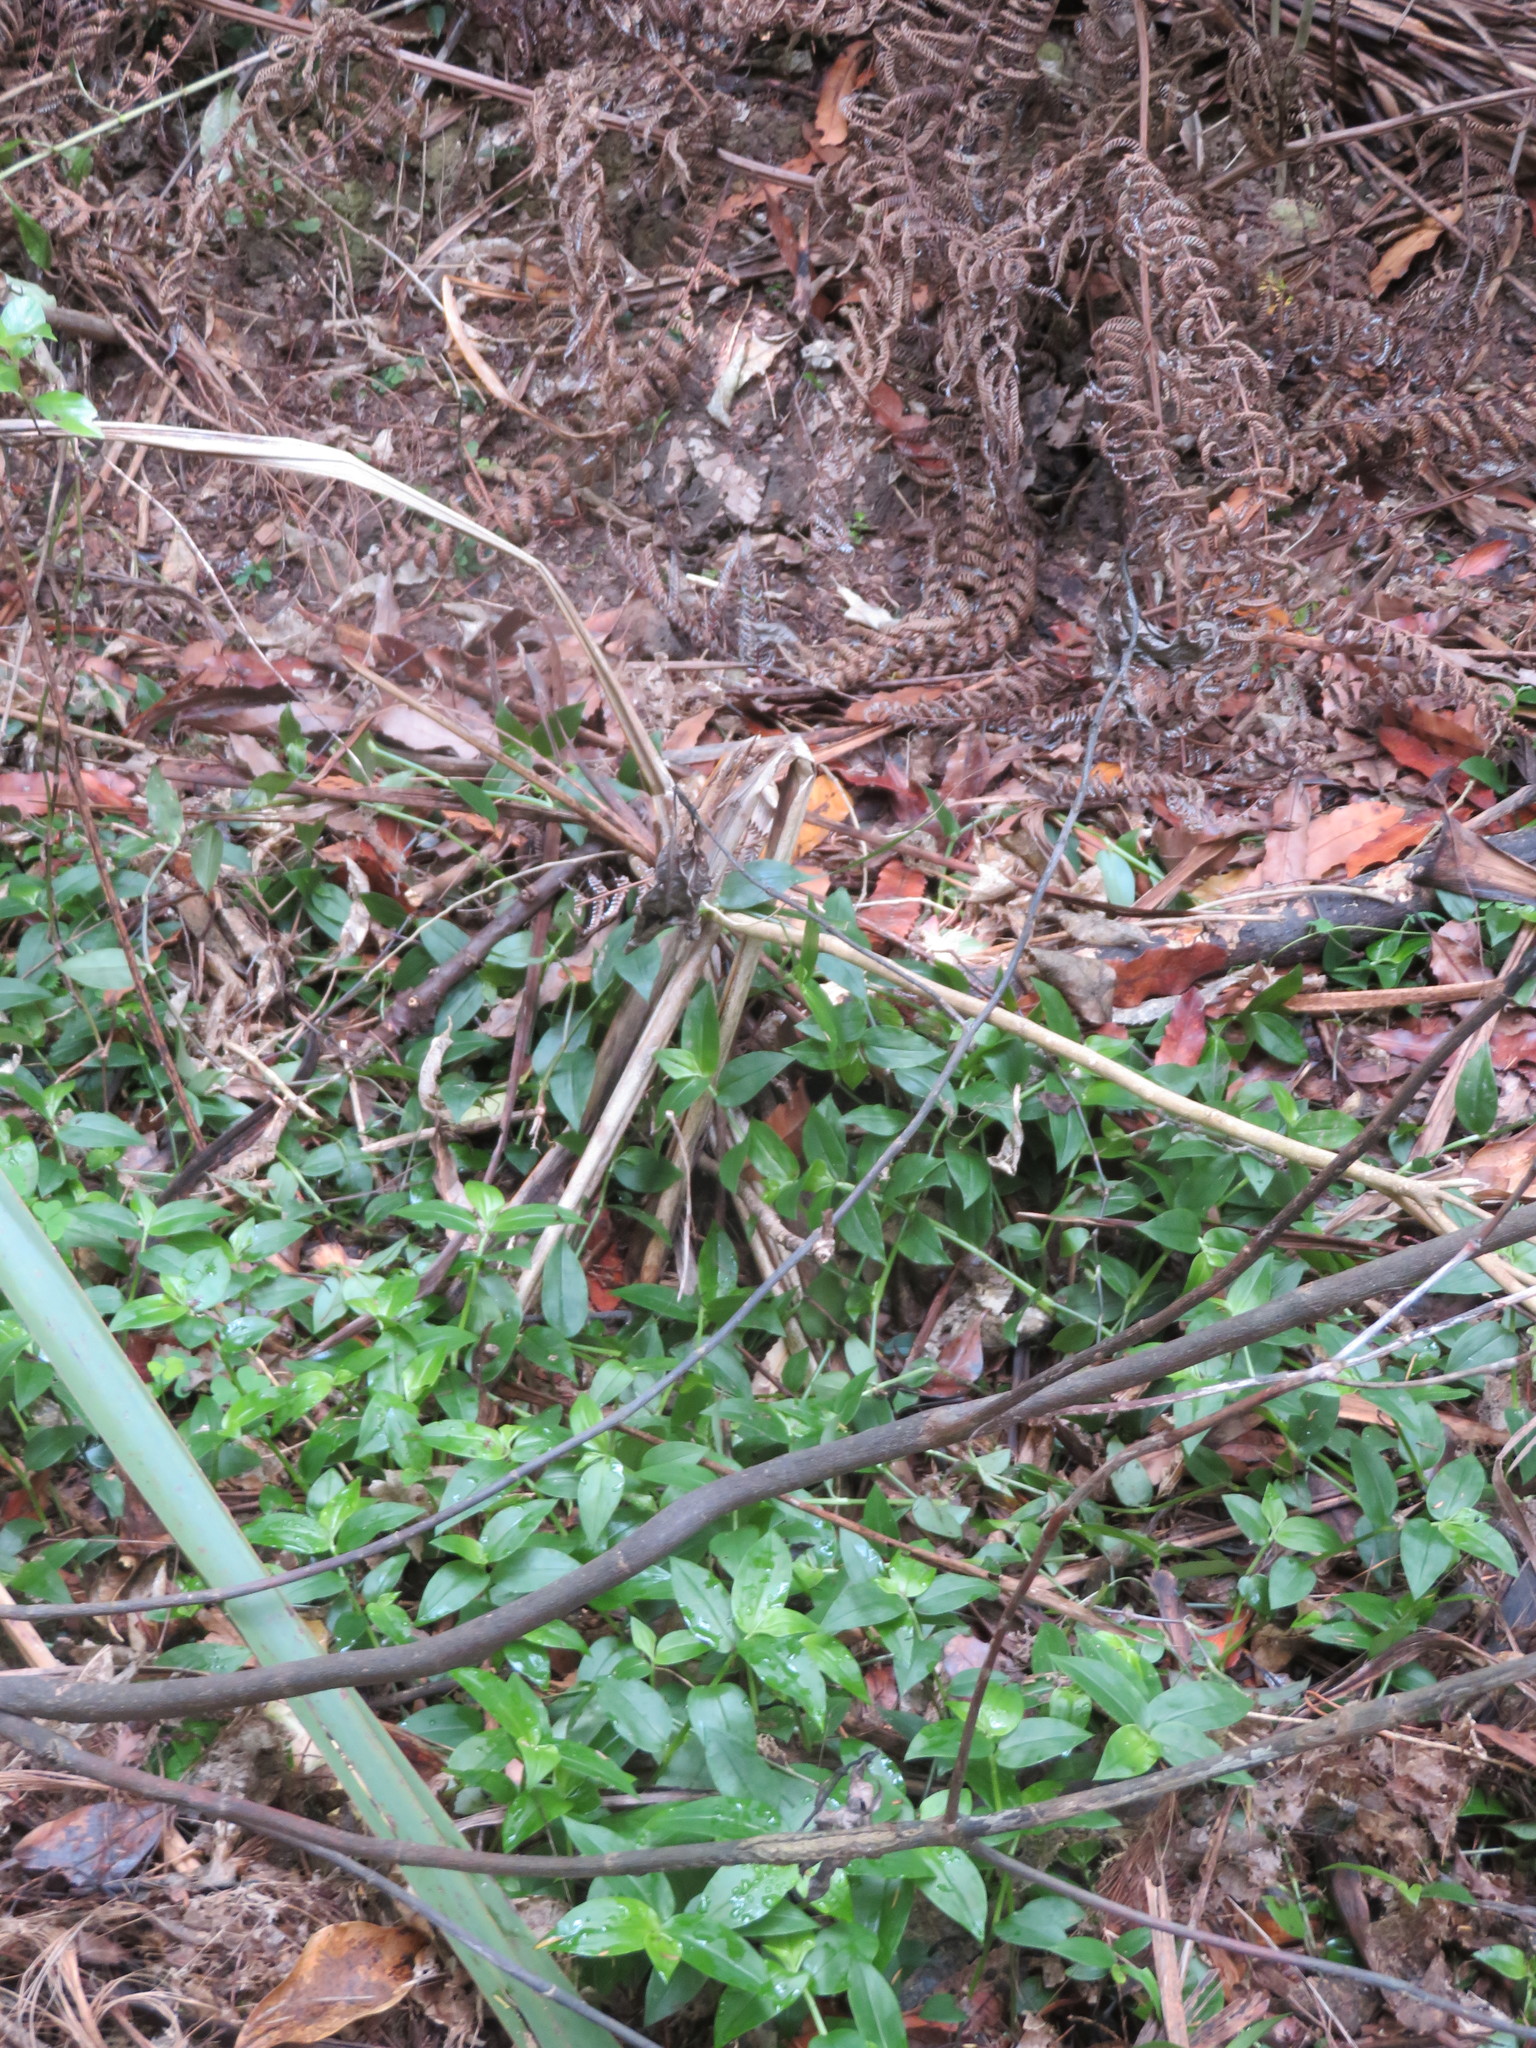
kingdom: Plantae
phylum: Tracheophyta
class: Liliopsida
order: Commelinales
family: Commelinaceae
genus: Tradescantia
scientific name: Tradescantia fluminensis
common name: Wandering-jew
